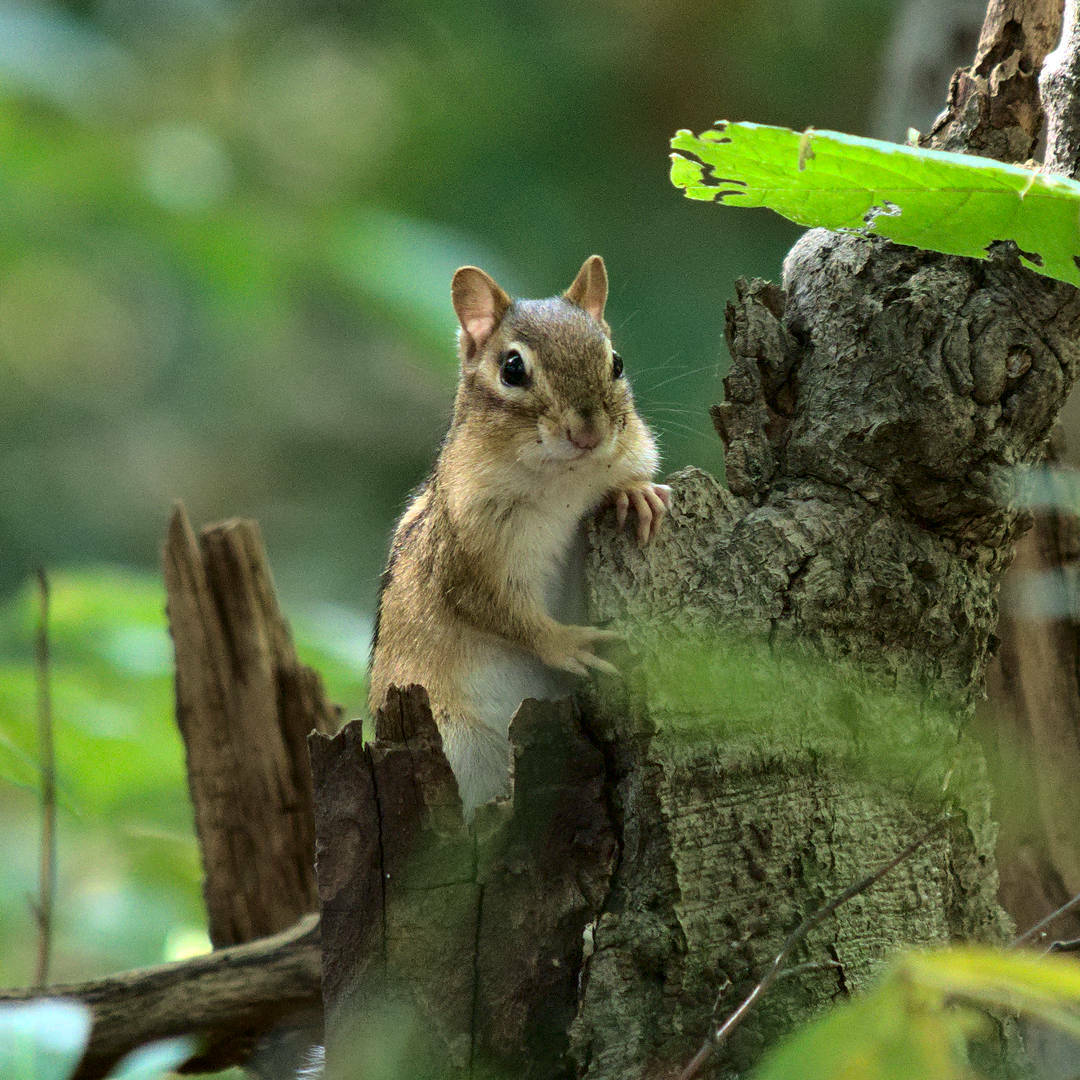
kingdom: Animalia
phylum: Chordata
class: Mammalia
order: Rodentia
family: Sciuridae
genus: Tamias
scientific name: Tamias striatus
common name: Eastern chipmunk
